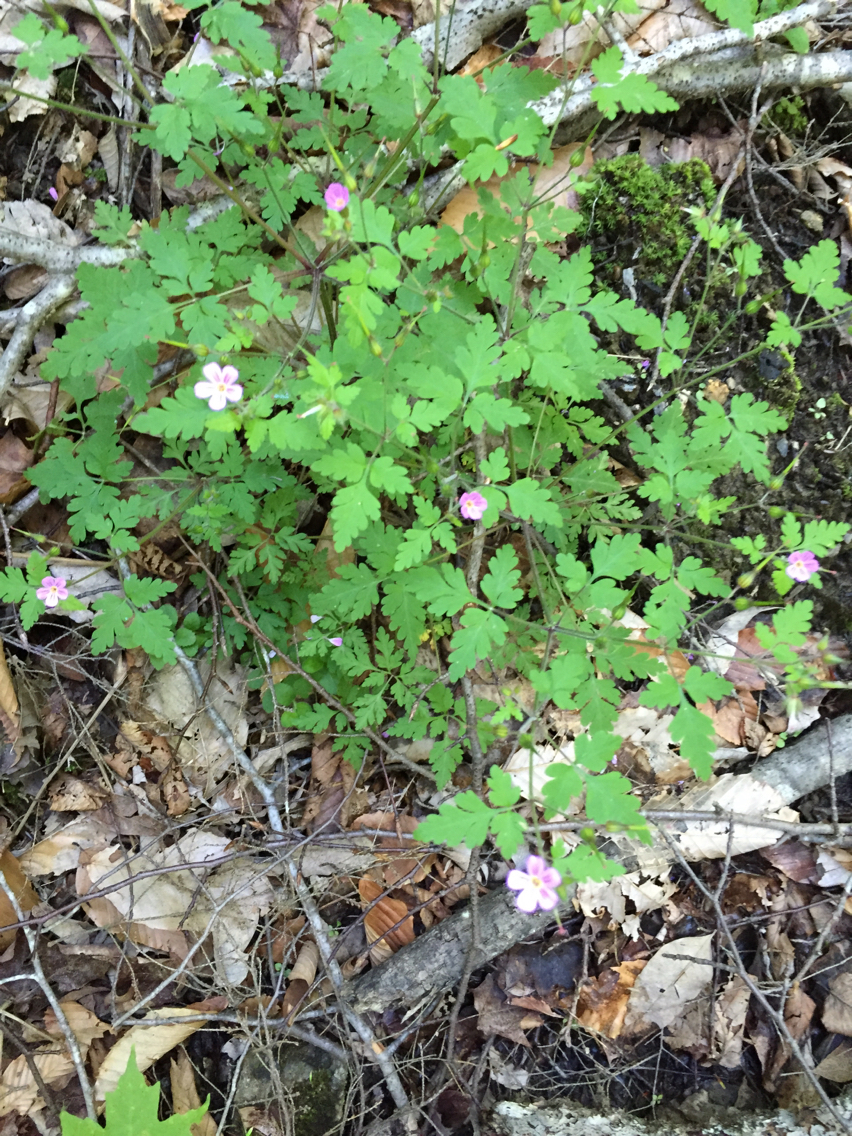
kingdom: Plantae
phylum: Tracheophyta
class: Magnoliopsida
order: Geraniales
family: Geraniaceae
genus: Geranium
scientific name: Geranium robertianum
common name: Herb-robert
